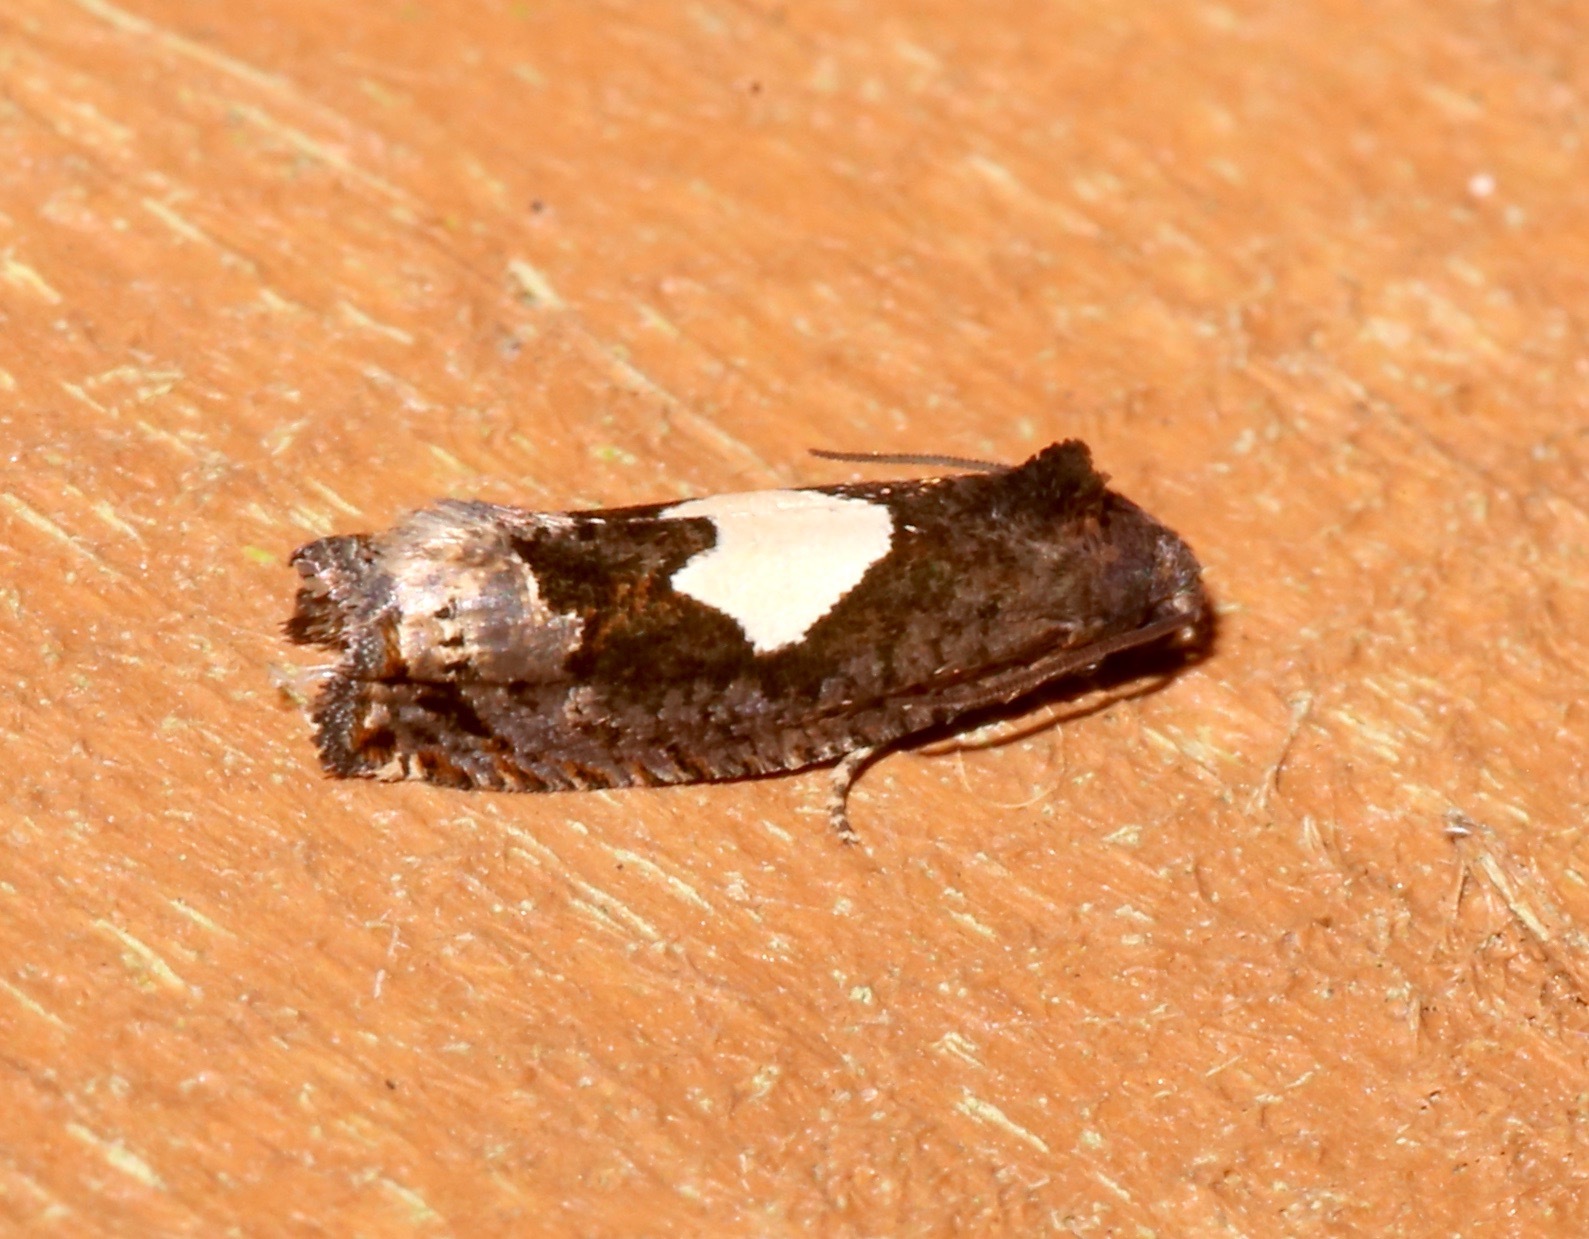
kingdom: Animalia
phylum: Arthropoda
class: Insecta
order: Lepidoptera
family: Tortricidae
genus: Epiblema
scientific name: Epiblema otiosana
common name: Bidens borer moth
